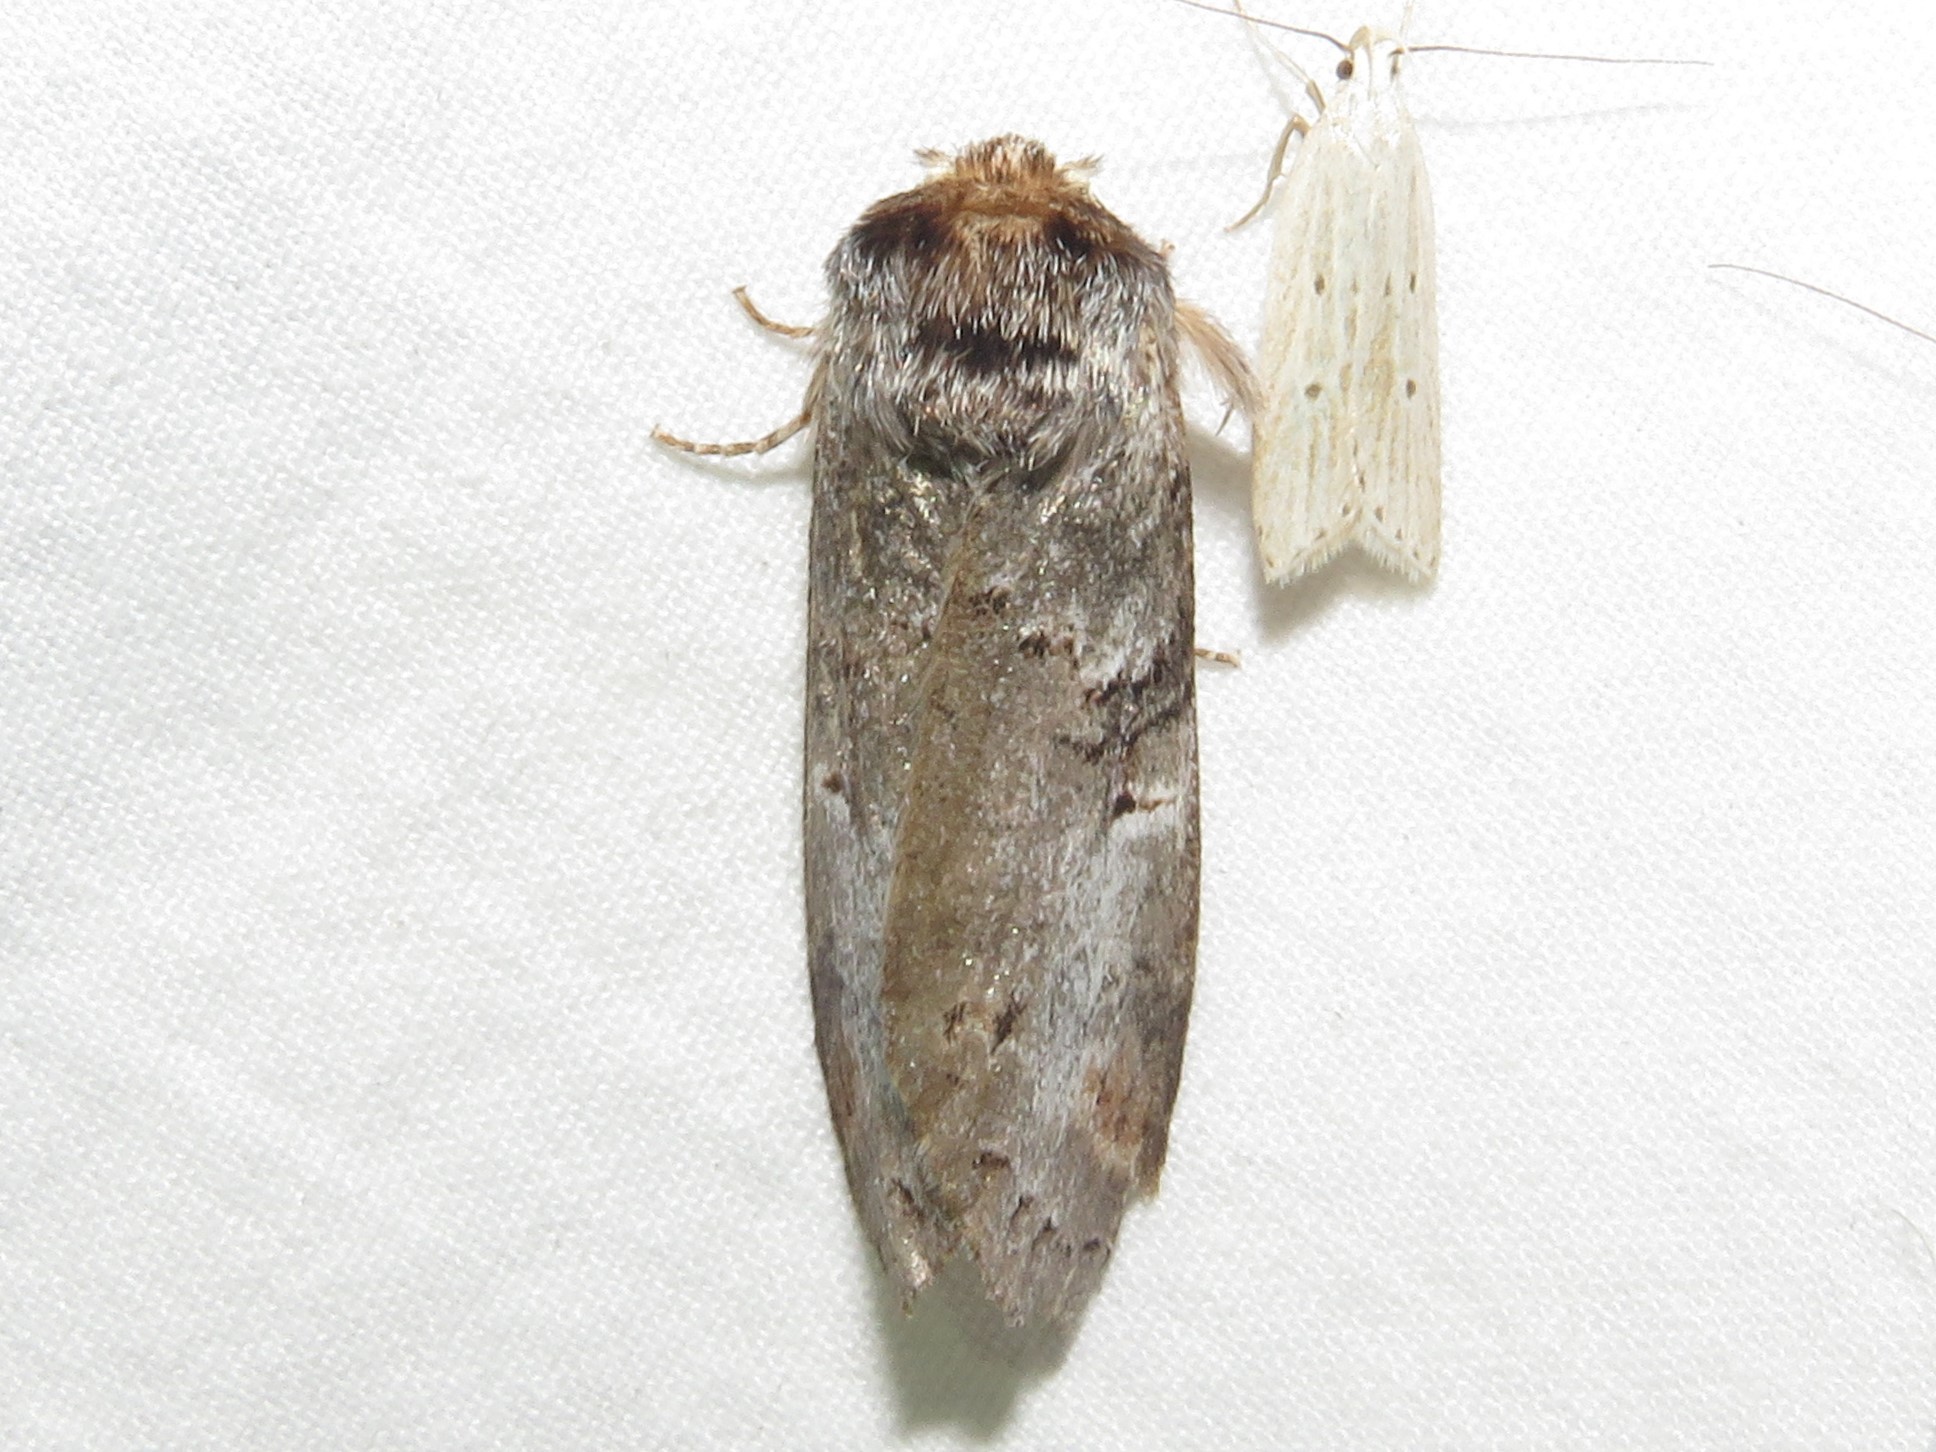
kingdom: Animalia
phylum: Arthropoda
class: Insecta
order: Lepidoptera
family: Notodontidae
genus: Ellida
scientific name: Ellida caniplaga
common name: Linden prominent
